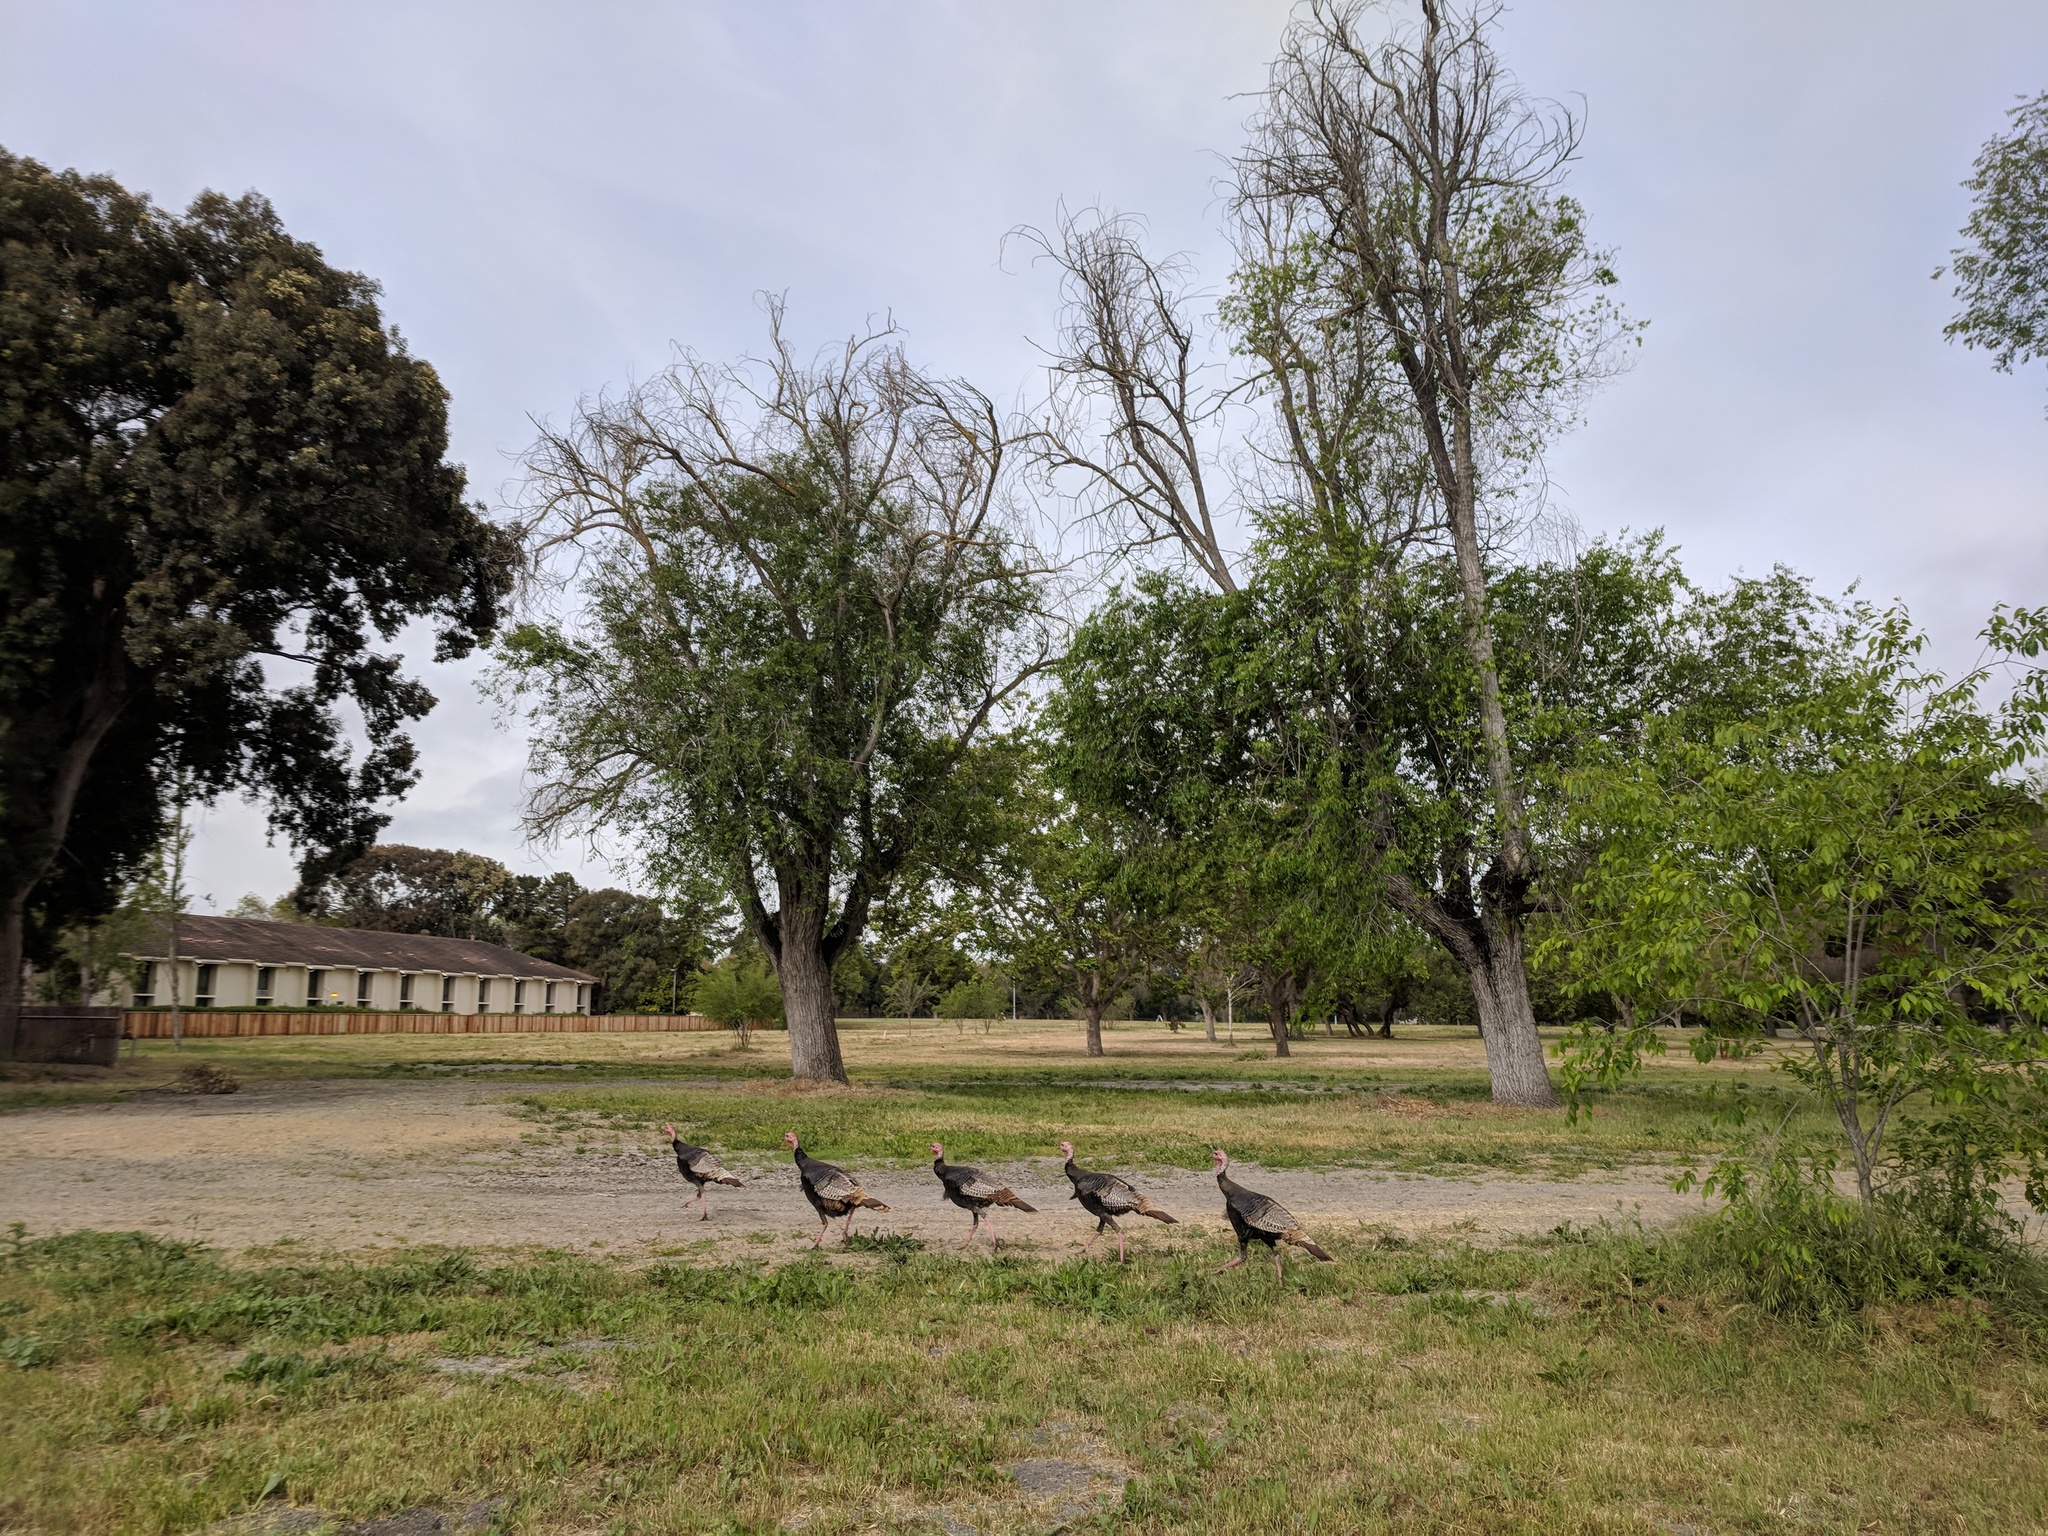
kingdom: Animalia
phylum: Chordata
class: Aves
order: Galliformes
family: Phasianidae
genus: Meleagris
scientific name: Meleagris gallopavo
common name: Wild turkey
